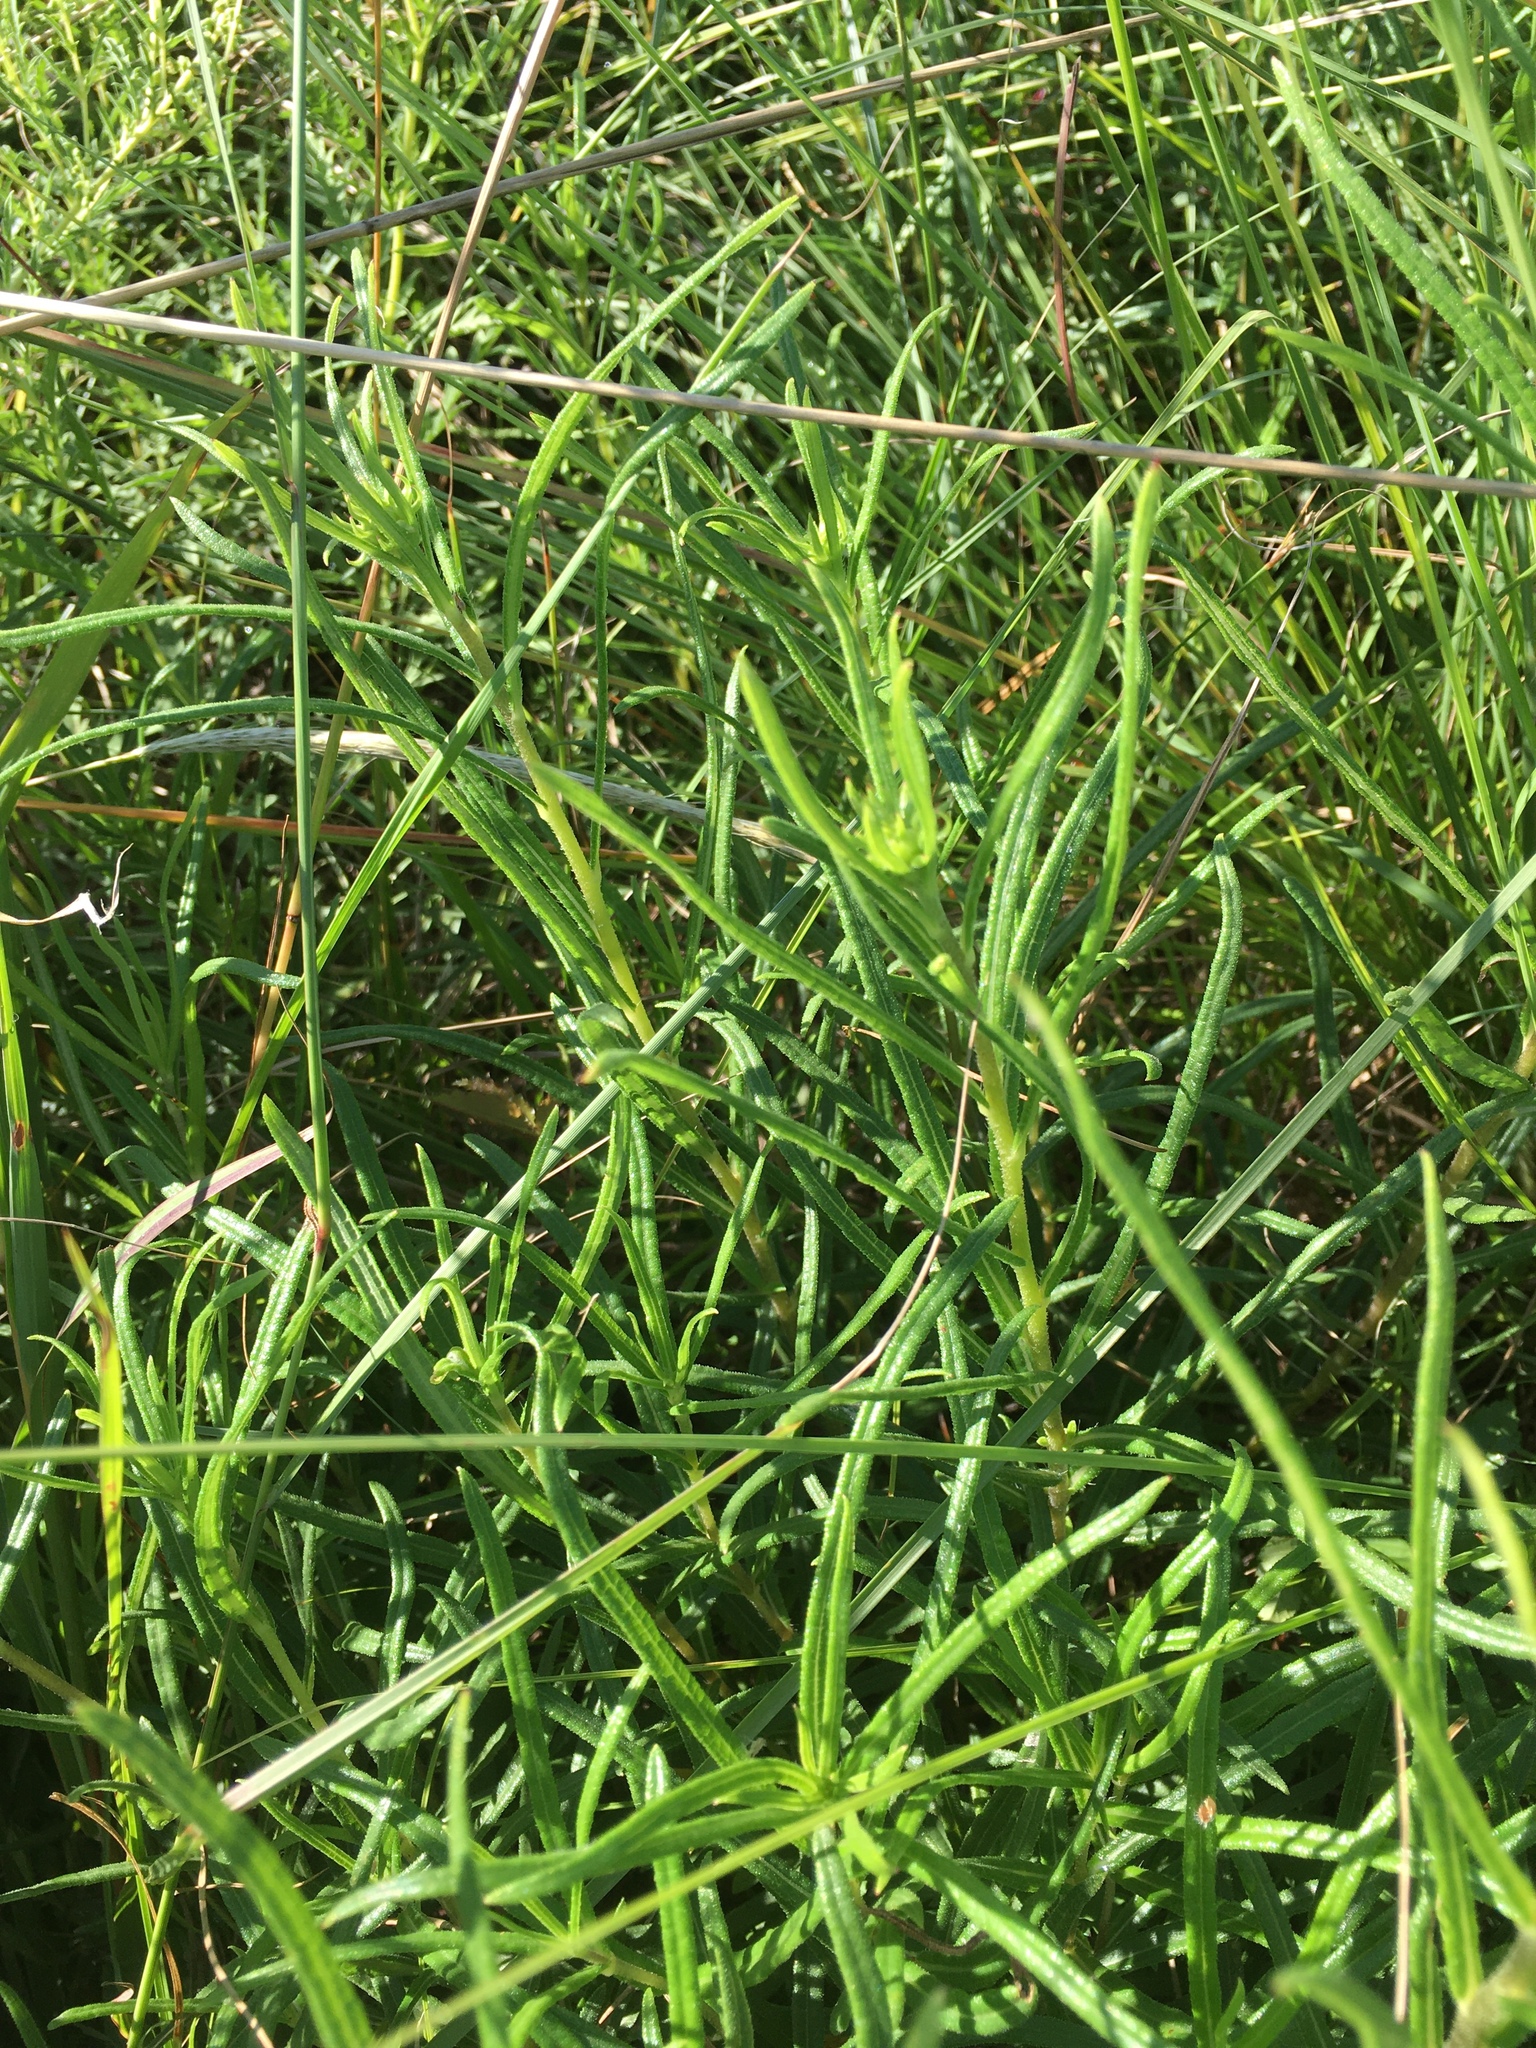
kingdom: Plantae
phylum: Tracheophyta
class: Magnoliopsida
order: Asterales
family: Asteraceae
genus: Helianthus
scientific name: Helianthus angustifolius
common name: Swamp sunflower
